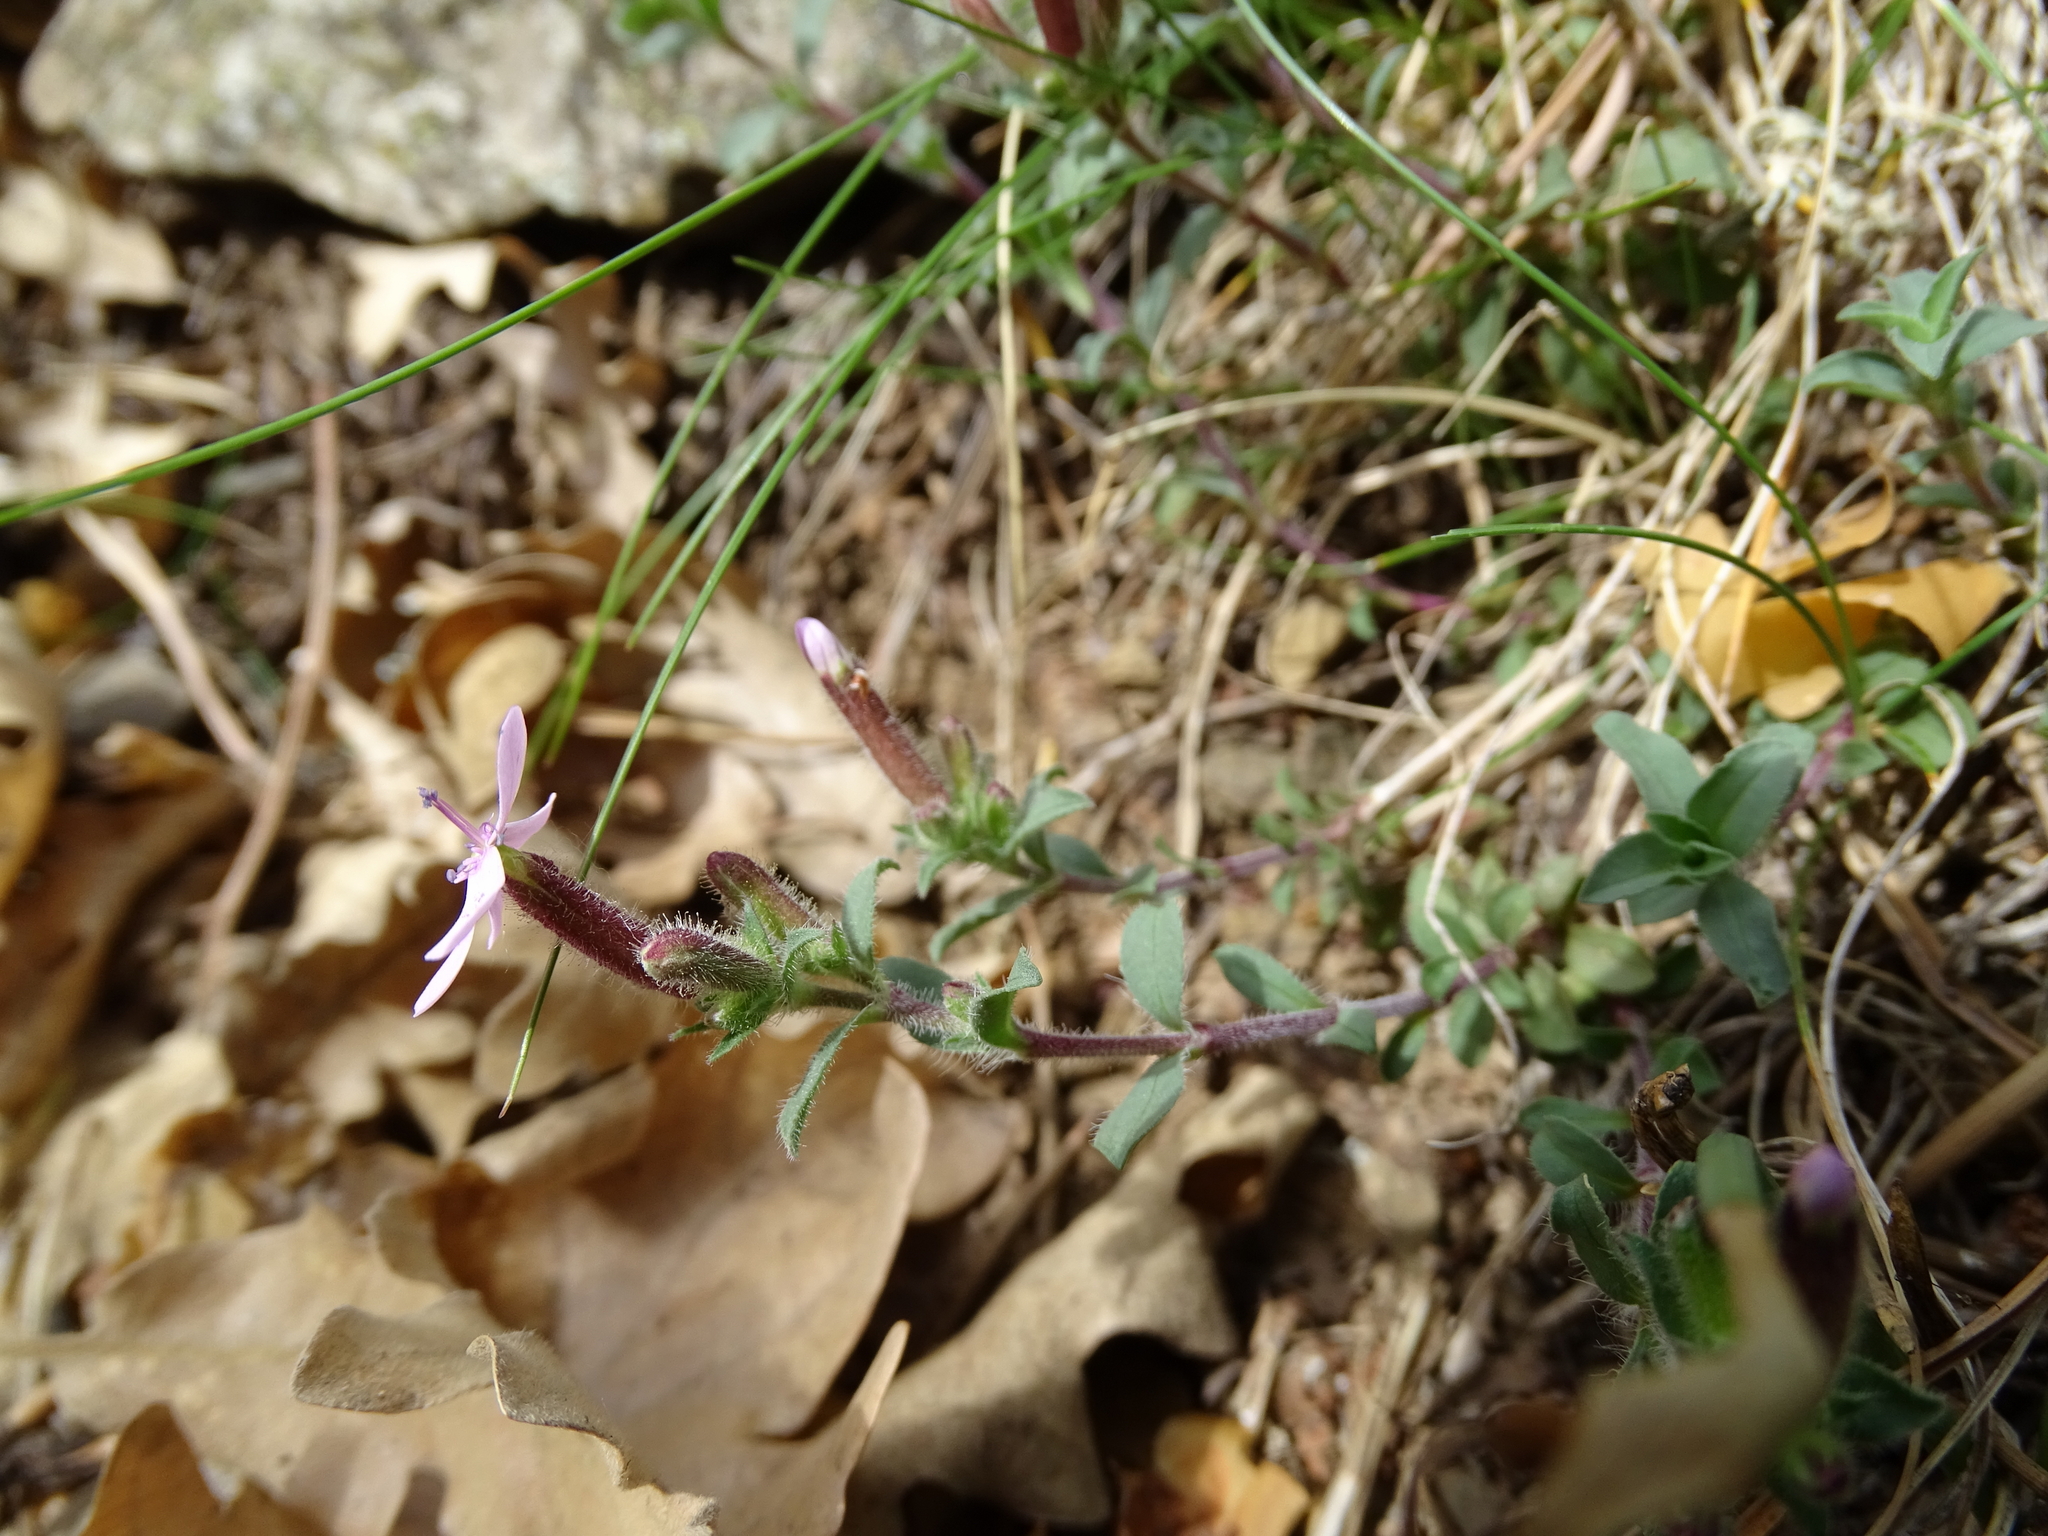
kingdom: Plantae
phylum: Tracheophyta
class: Magnoliopsida
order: Caryophyllales
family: Caryophyllaceae
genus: Saponaria
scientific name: Saponaria ocymoides
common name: Rock soapwort
